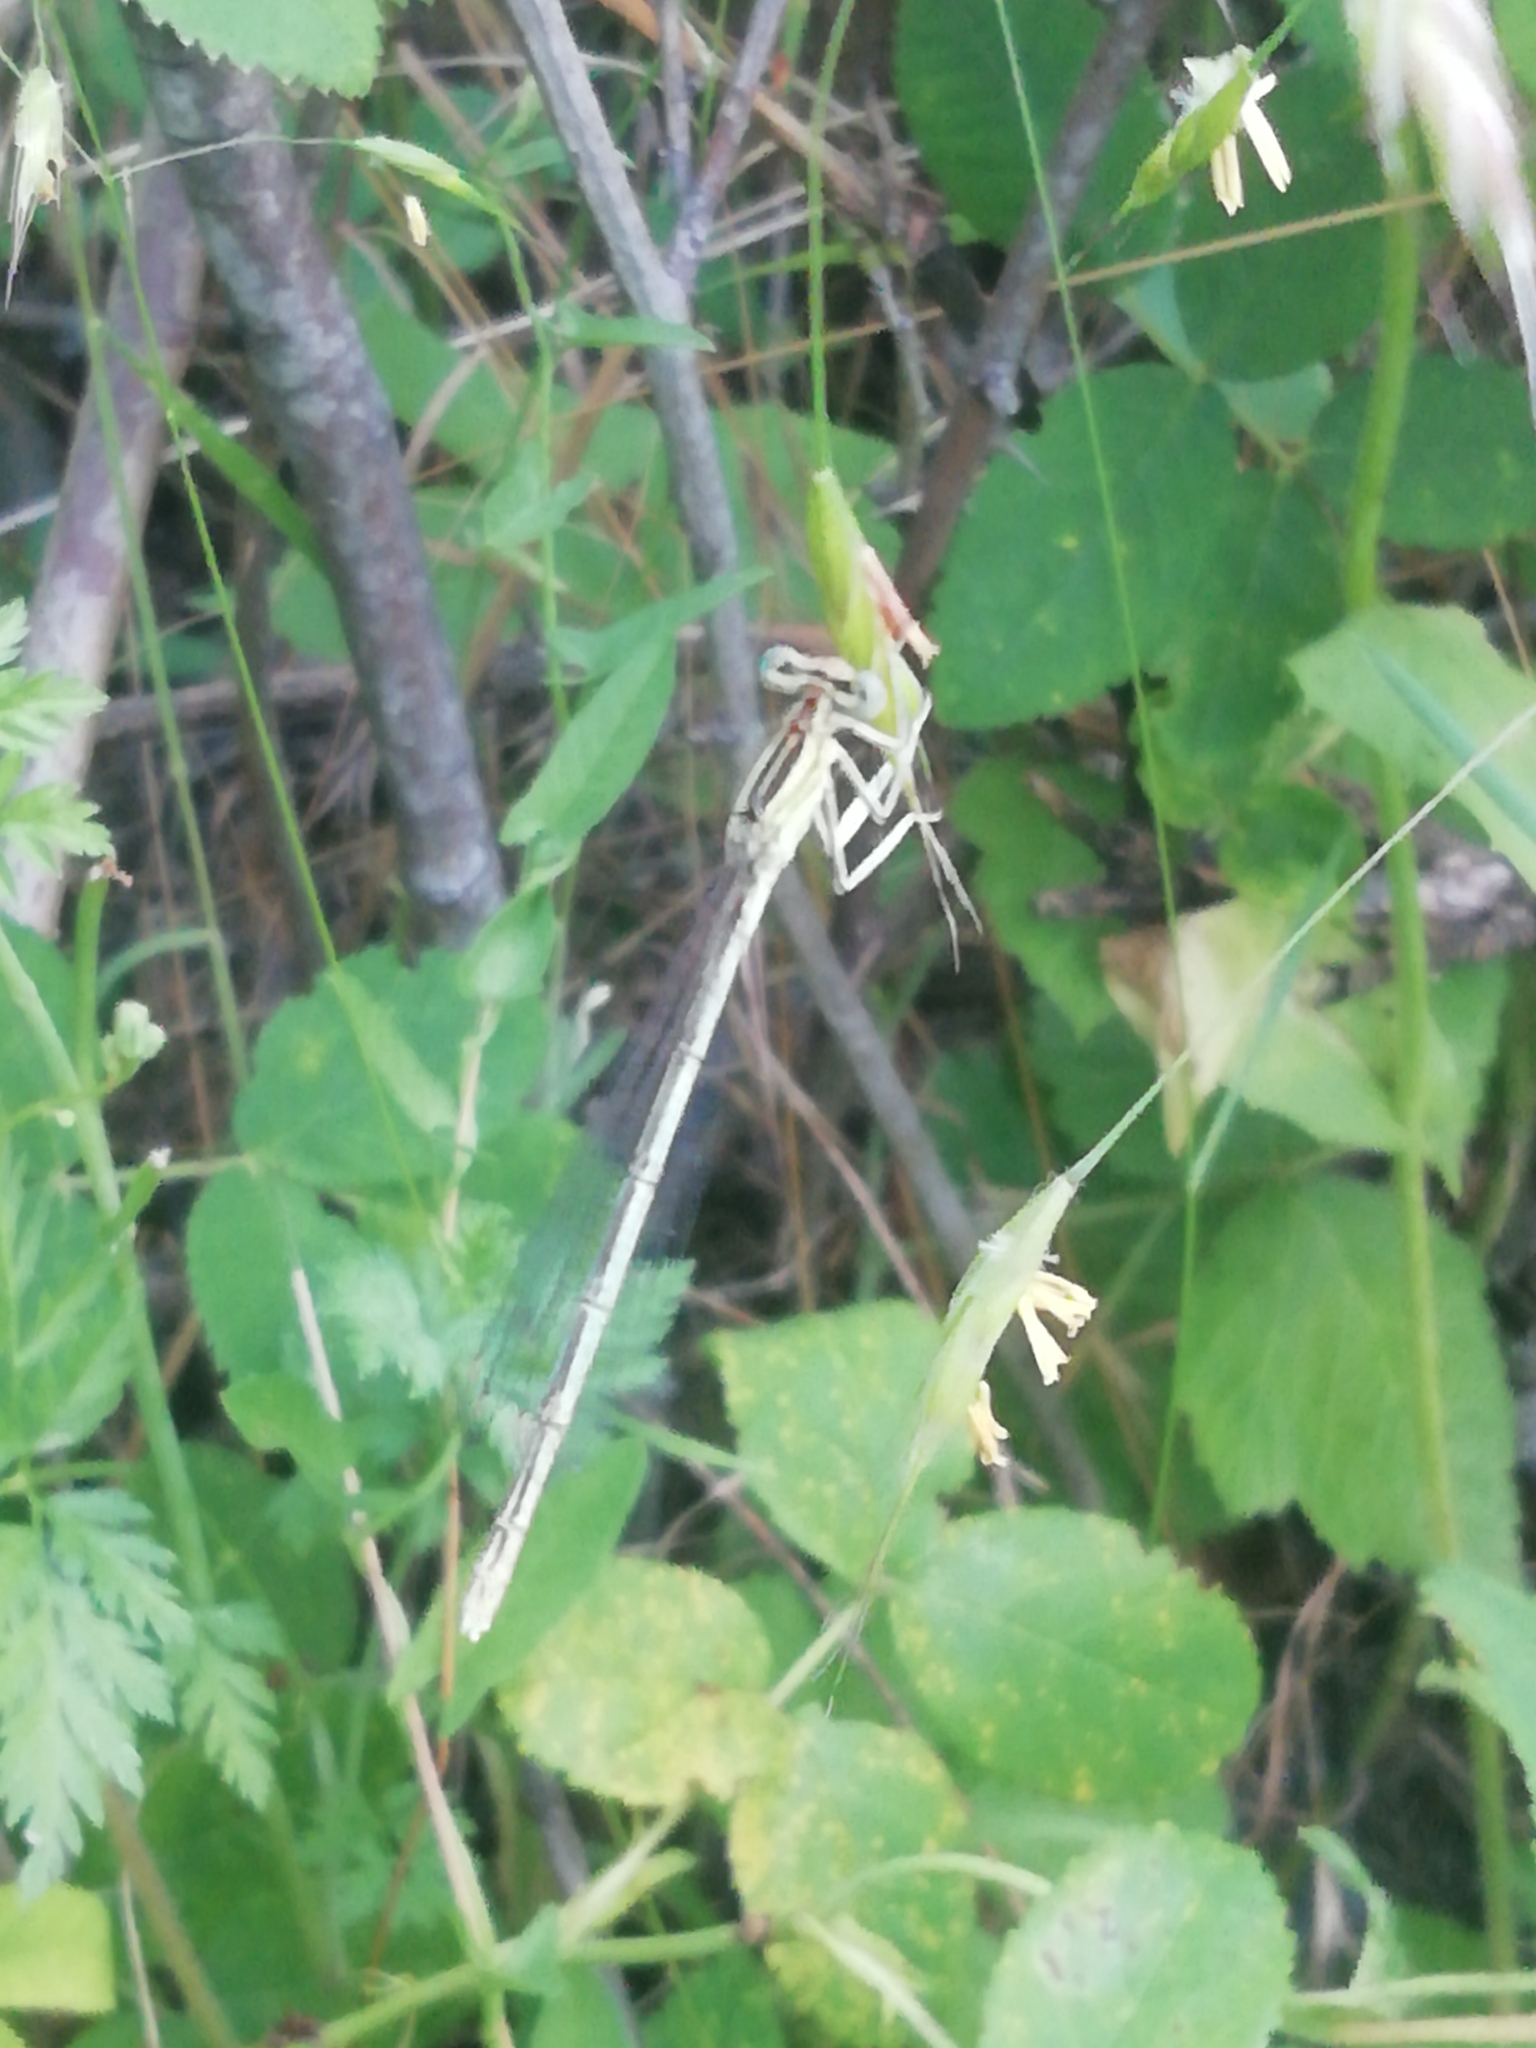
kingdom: Animalia
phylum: Arthropoda
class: Insecta
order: Odonata
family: Platycnemididae
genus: Platycnemis
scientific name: Platycnemis pennipes
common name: White-legged damselfly
